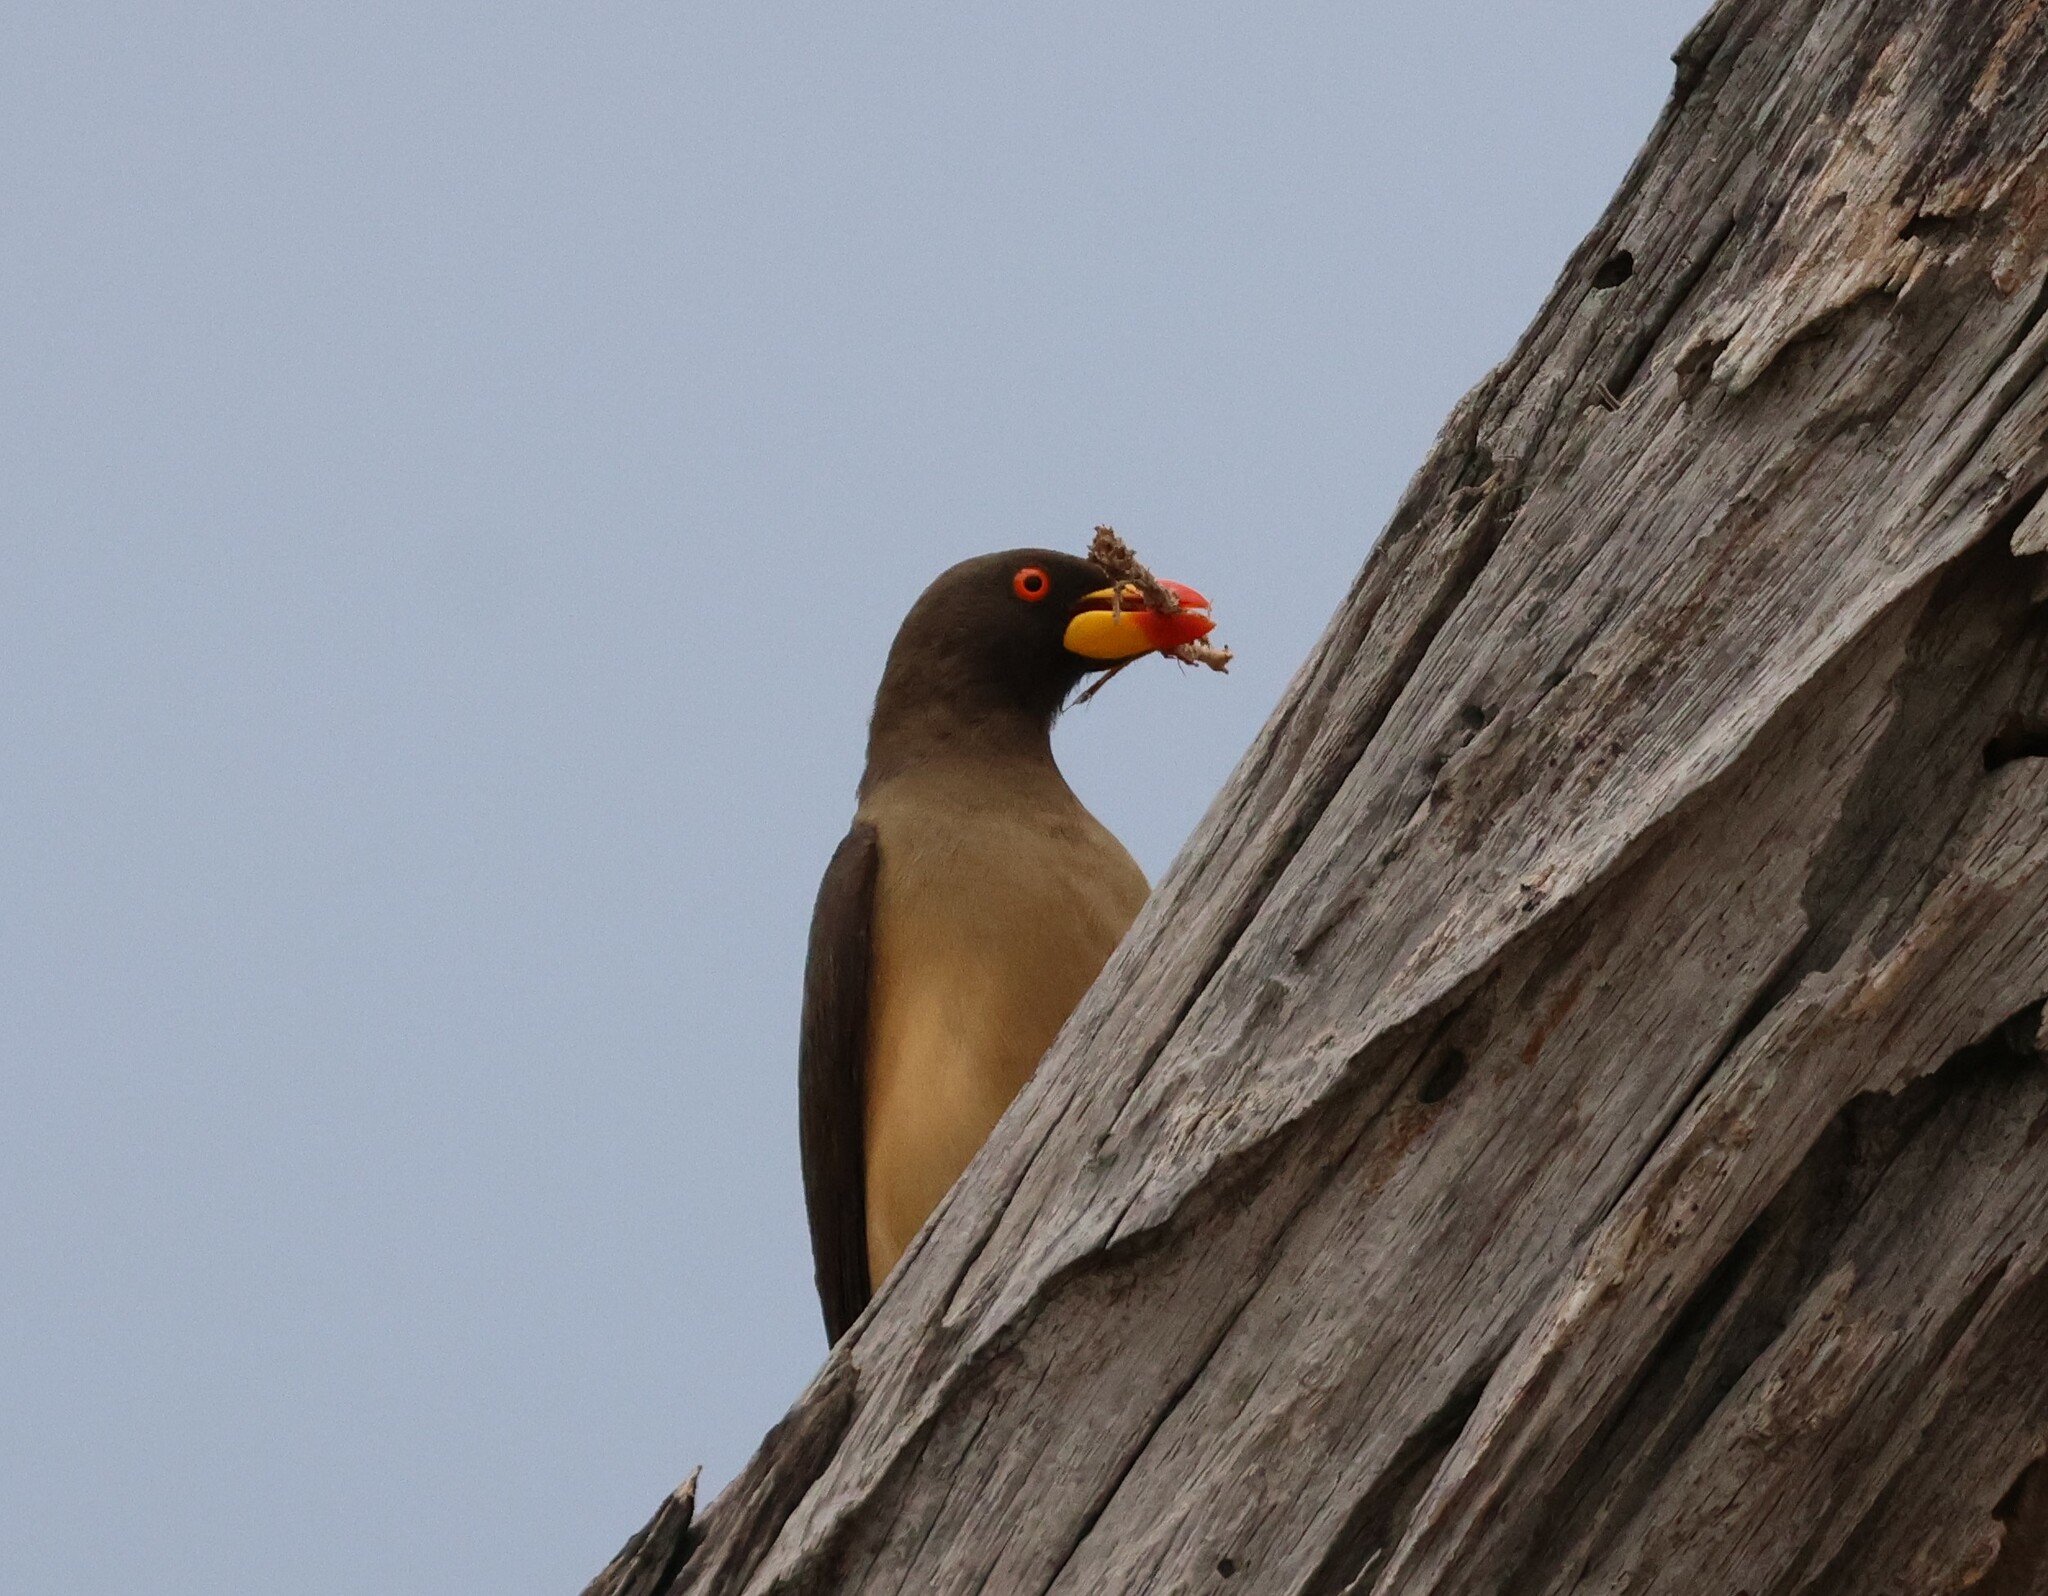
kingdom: Animalia
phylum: Chordata
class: Aves
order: Passeriformes
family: Buphagidae
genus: Buphagus
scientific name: Buphagus africanus
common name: Yellow-billed oxpecker
